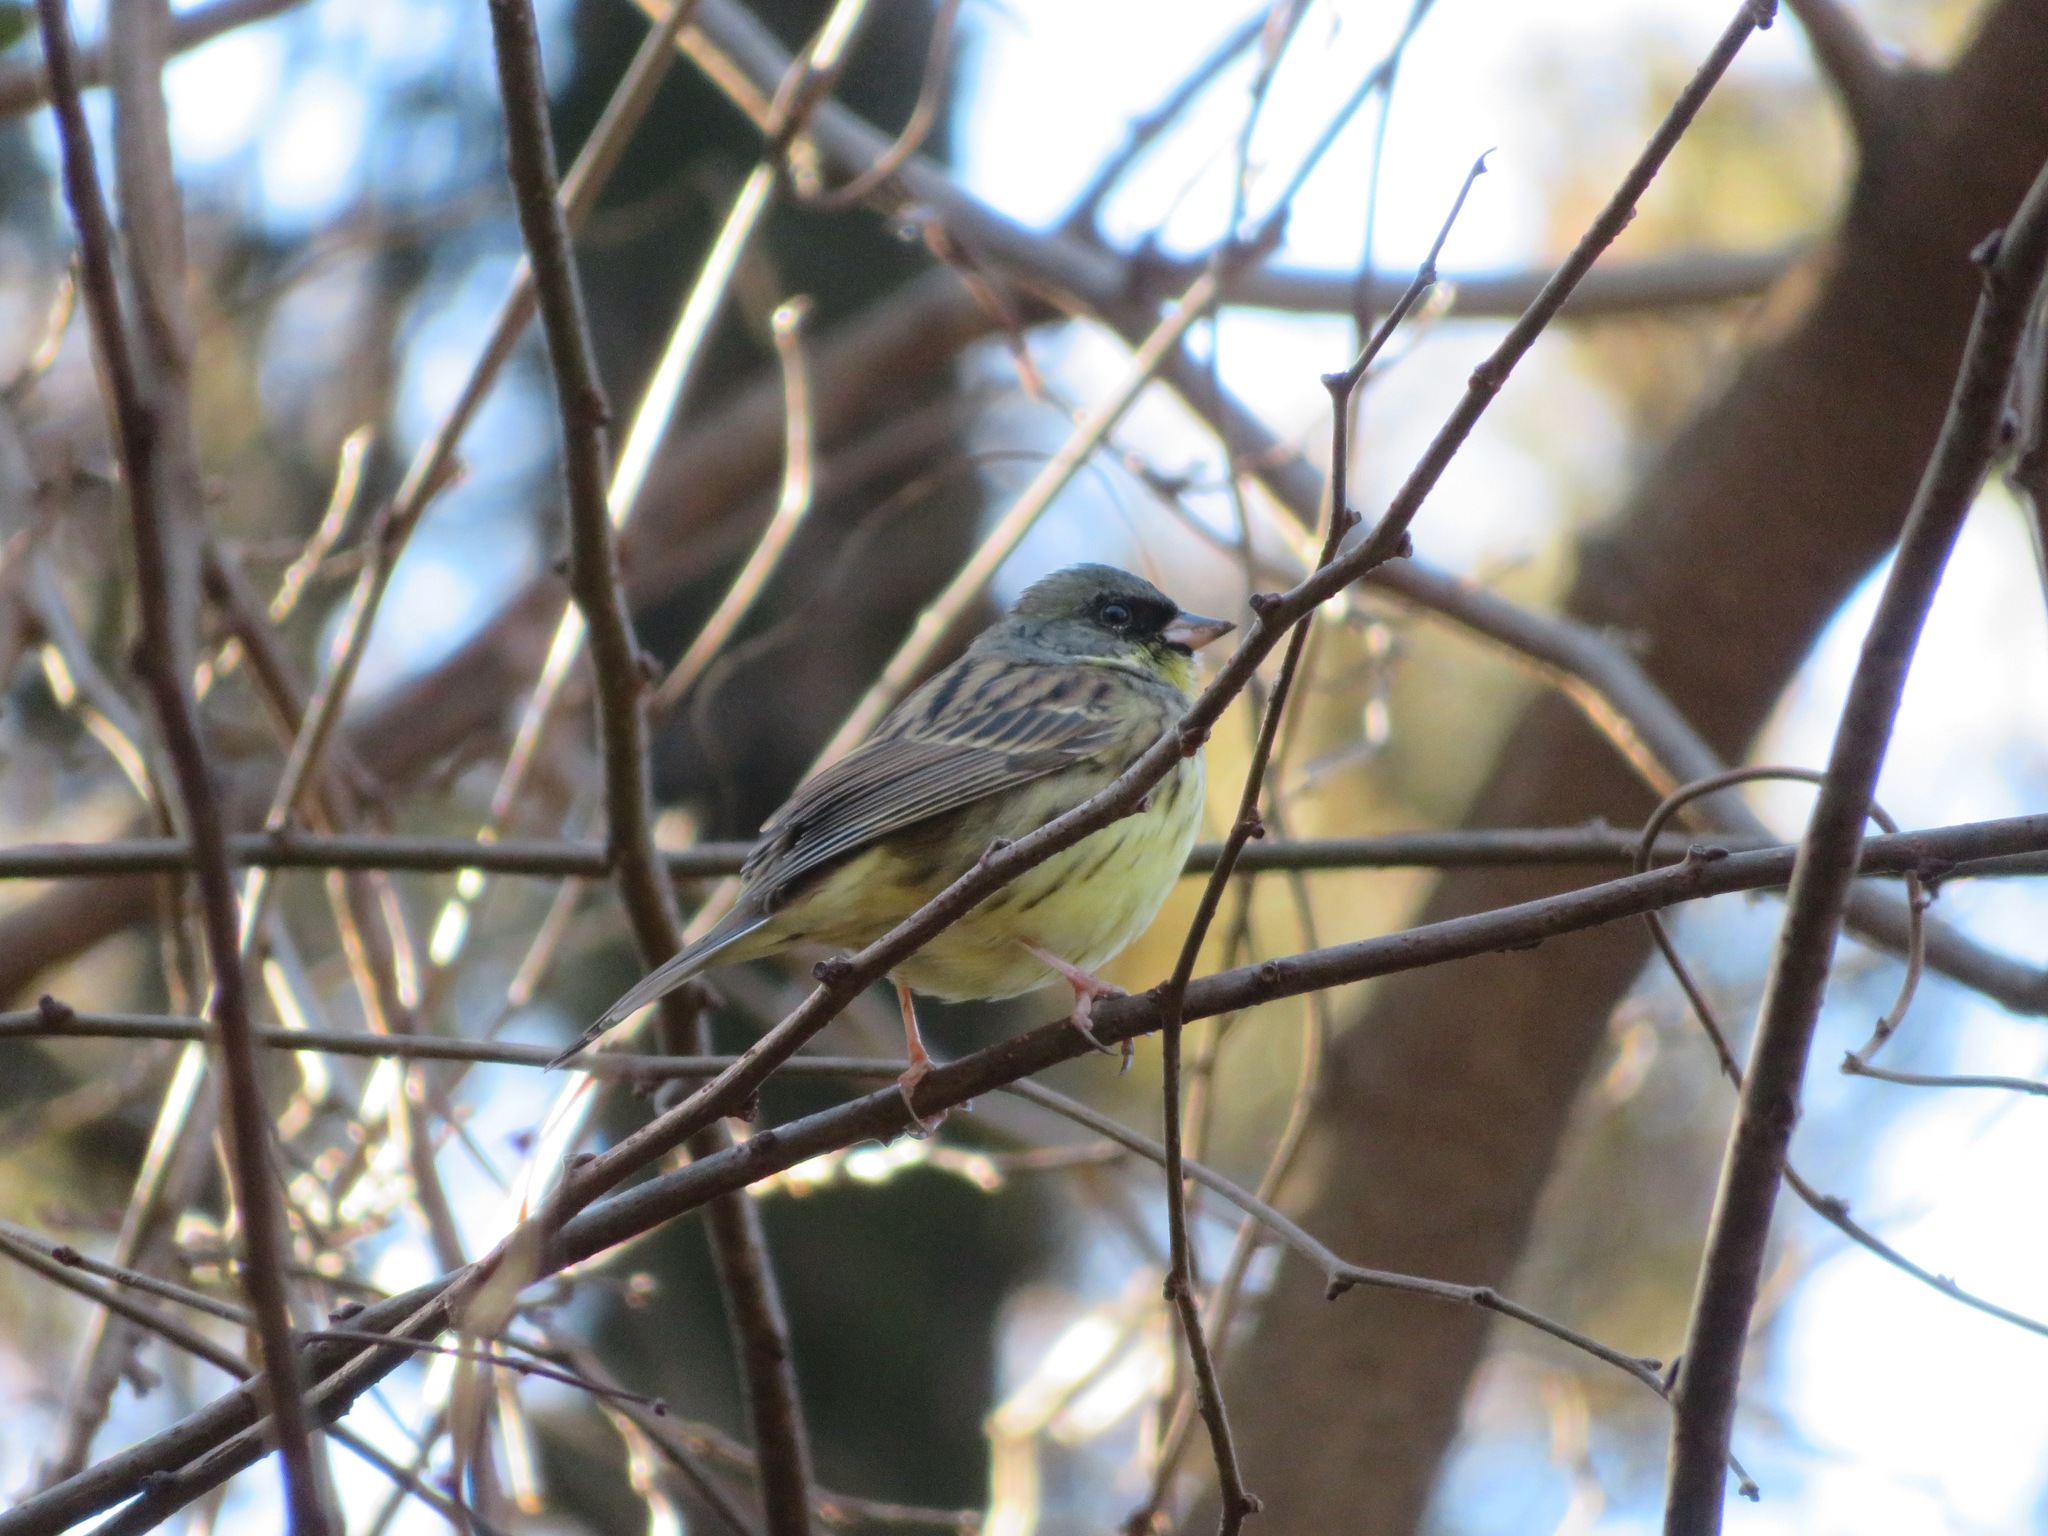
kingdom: Animalia
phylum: Chordata
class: Aves
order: Passeriformes
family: Emberizidae
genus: Emberiza
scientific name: Emberiza personata
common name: Masked bunting
